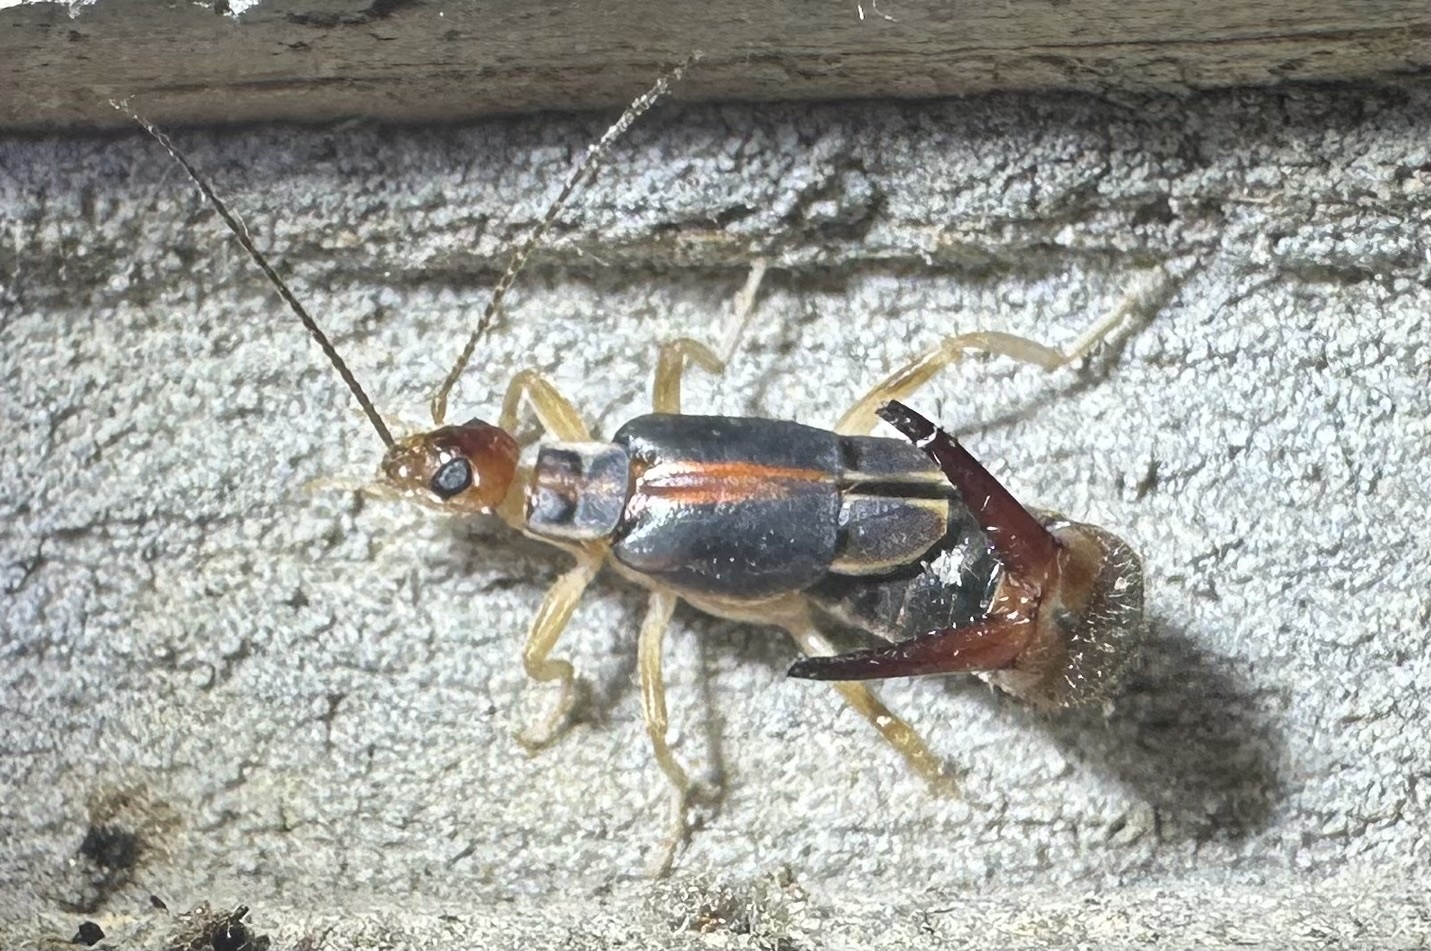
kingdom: Animalia
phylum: Arthropoda
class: Insecta
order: Dermaptera
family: Labiduridae
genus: Labidura
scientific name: Labidura riparia
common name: Striped earwig
